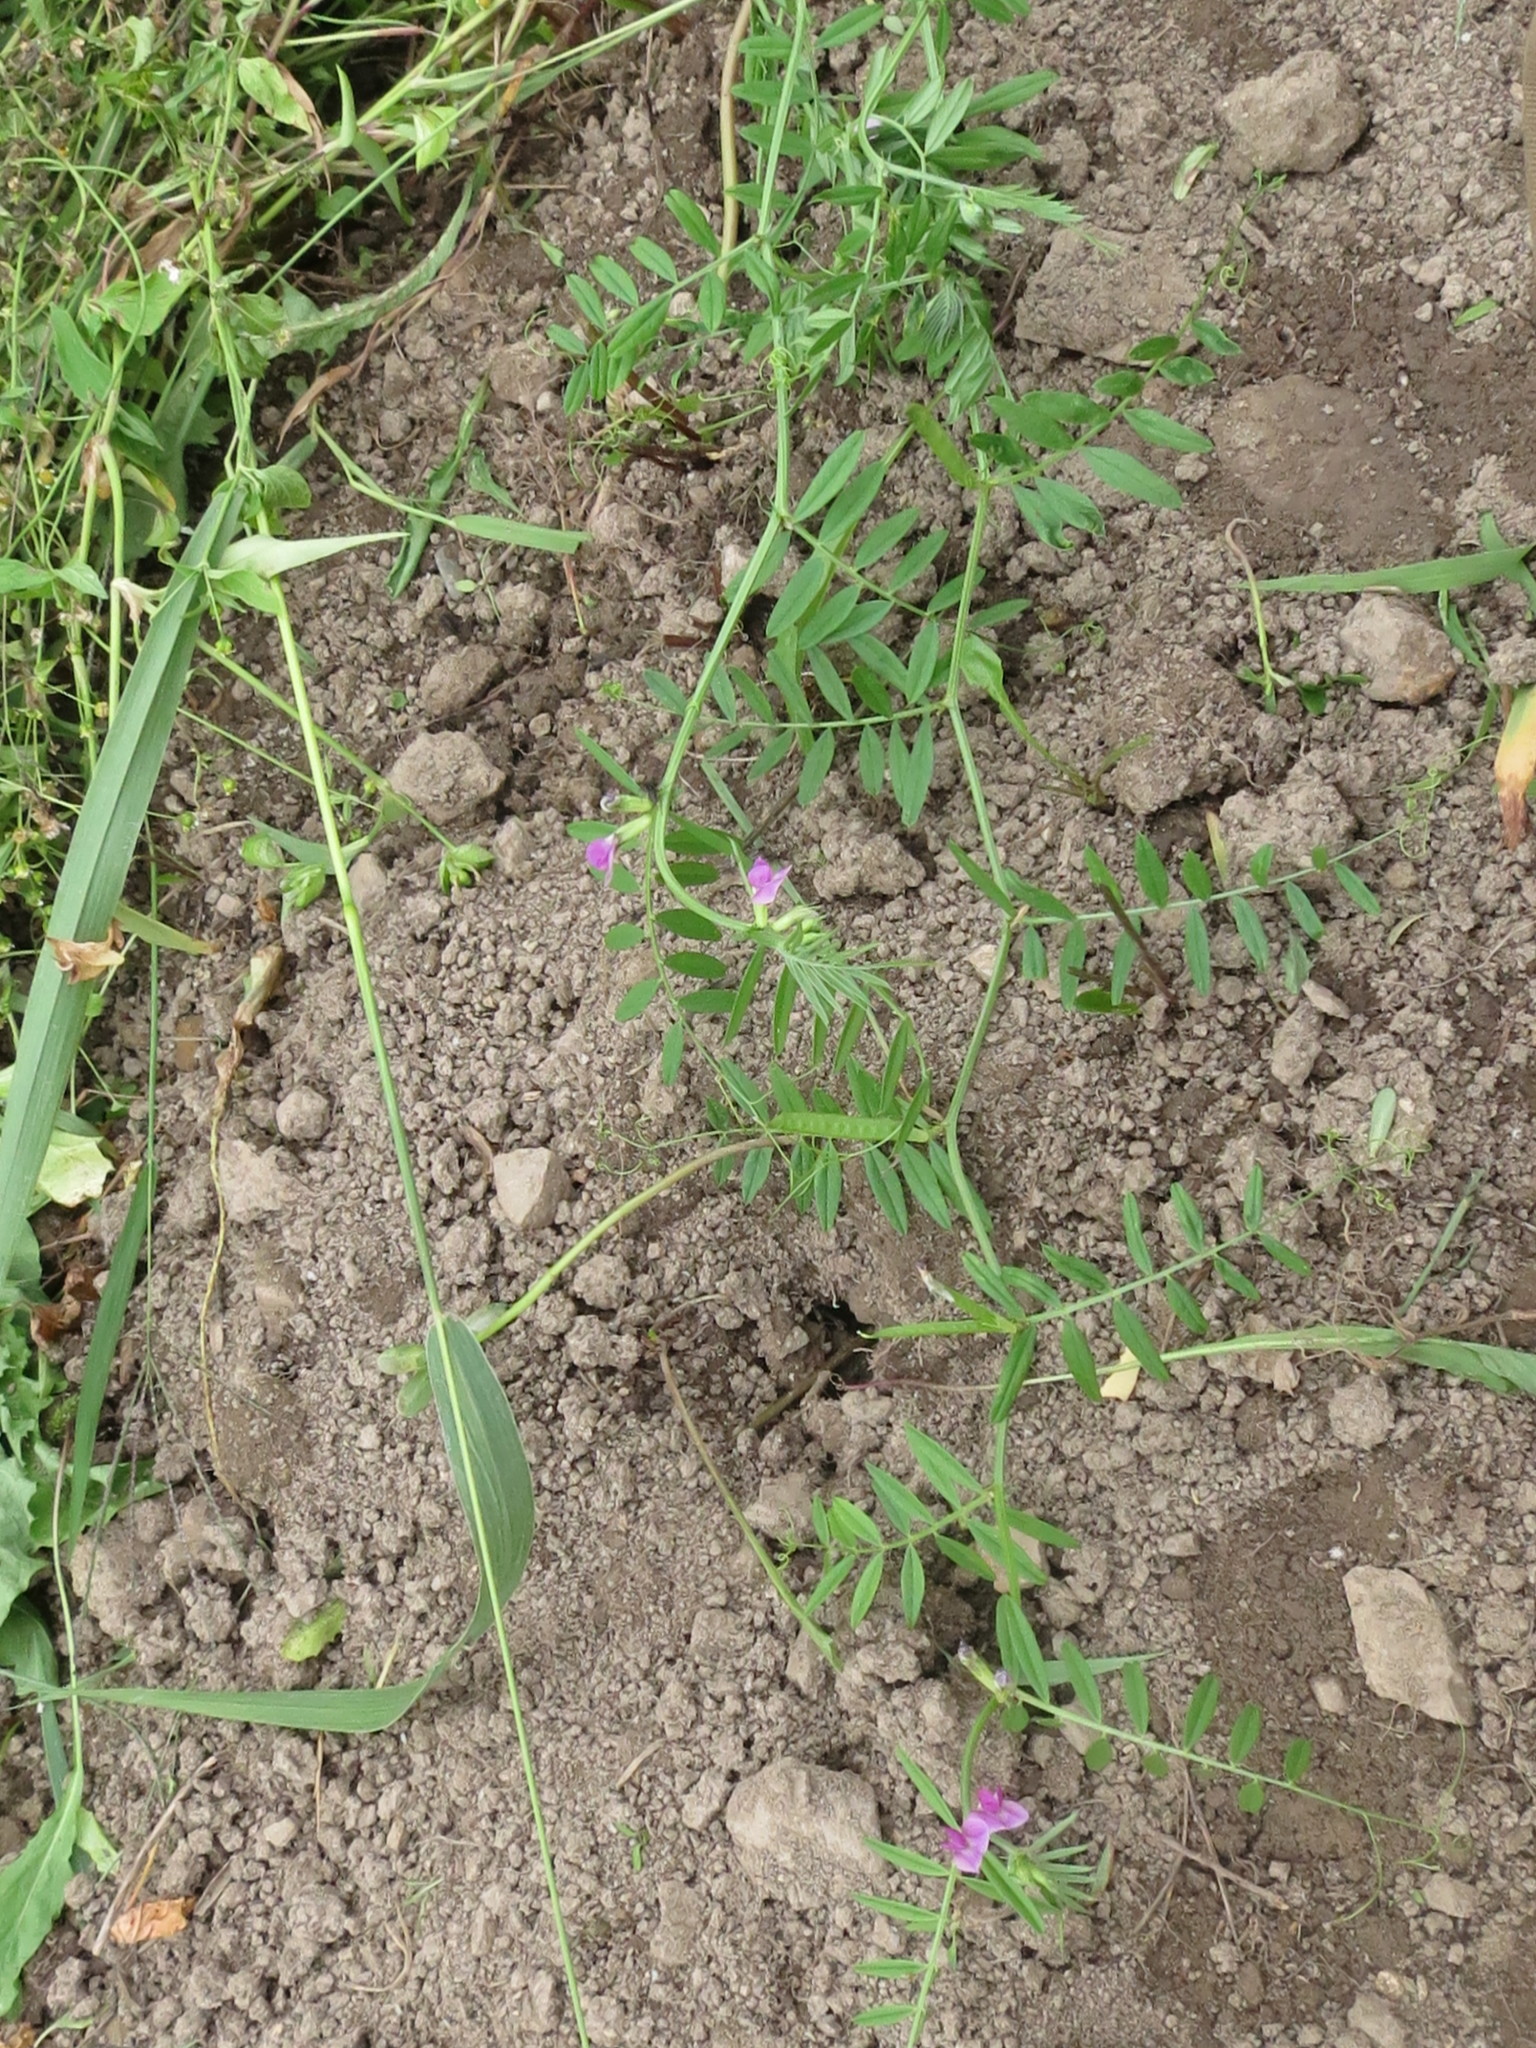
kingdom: Plantae
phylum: Tracheophyta
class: Magnoliopsida
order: Fabales
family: Fabaceae
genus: Vicia
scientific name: Vicia sativa
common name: Garden vetch
